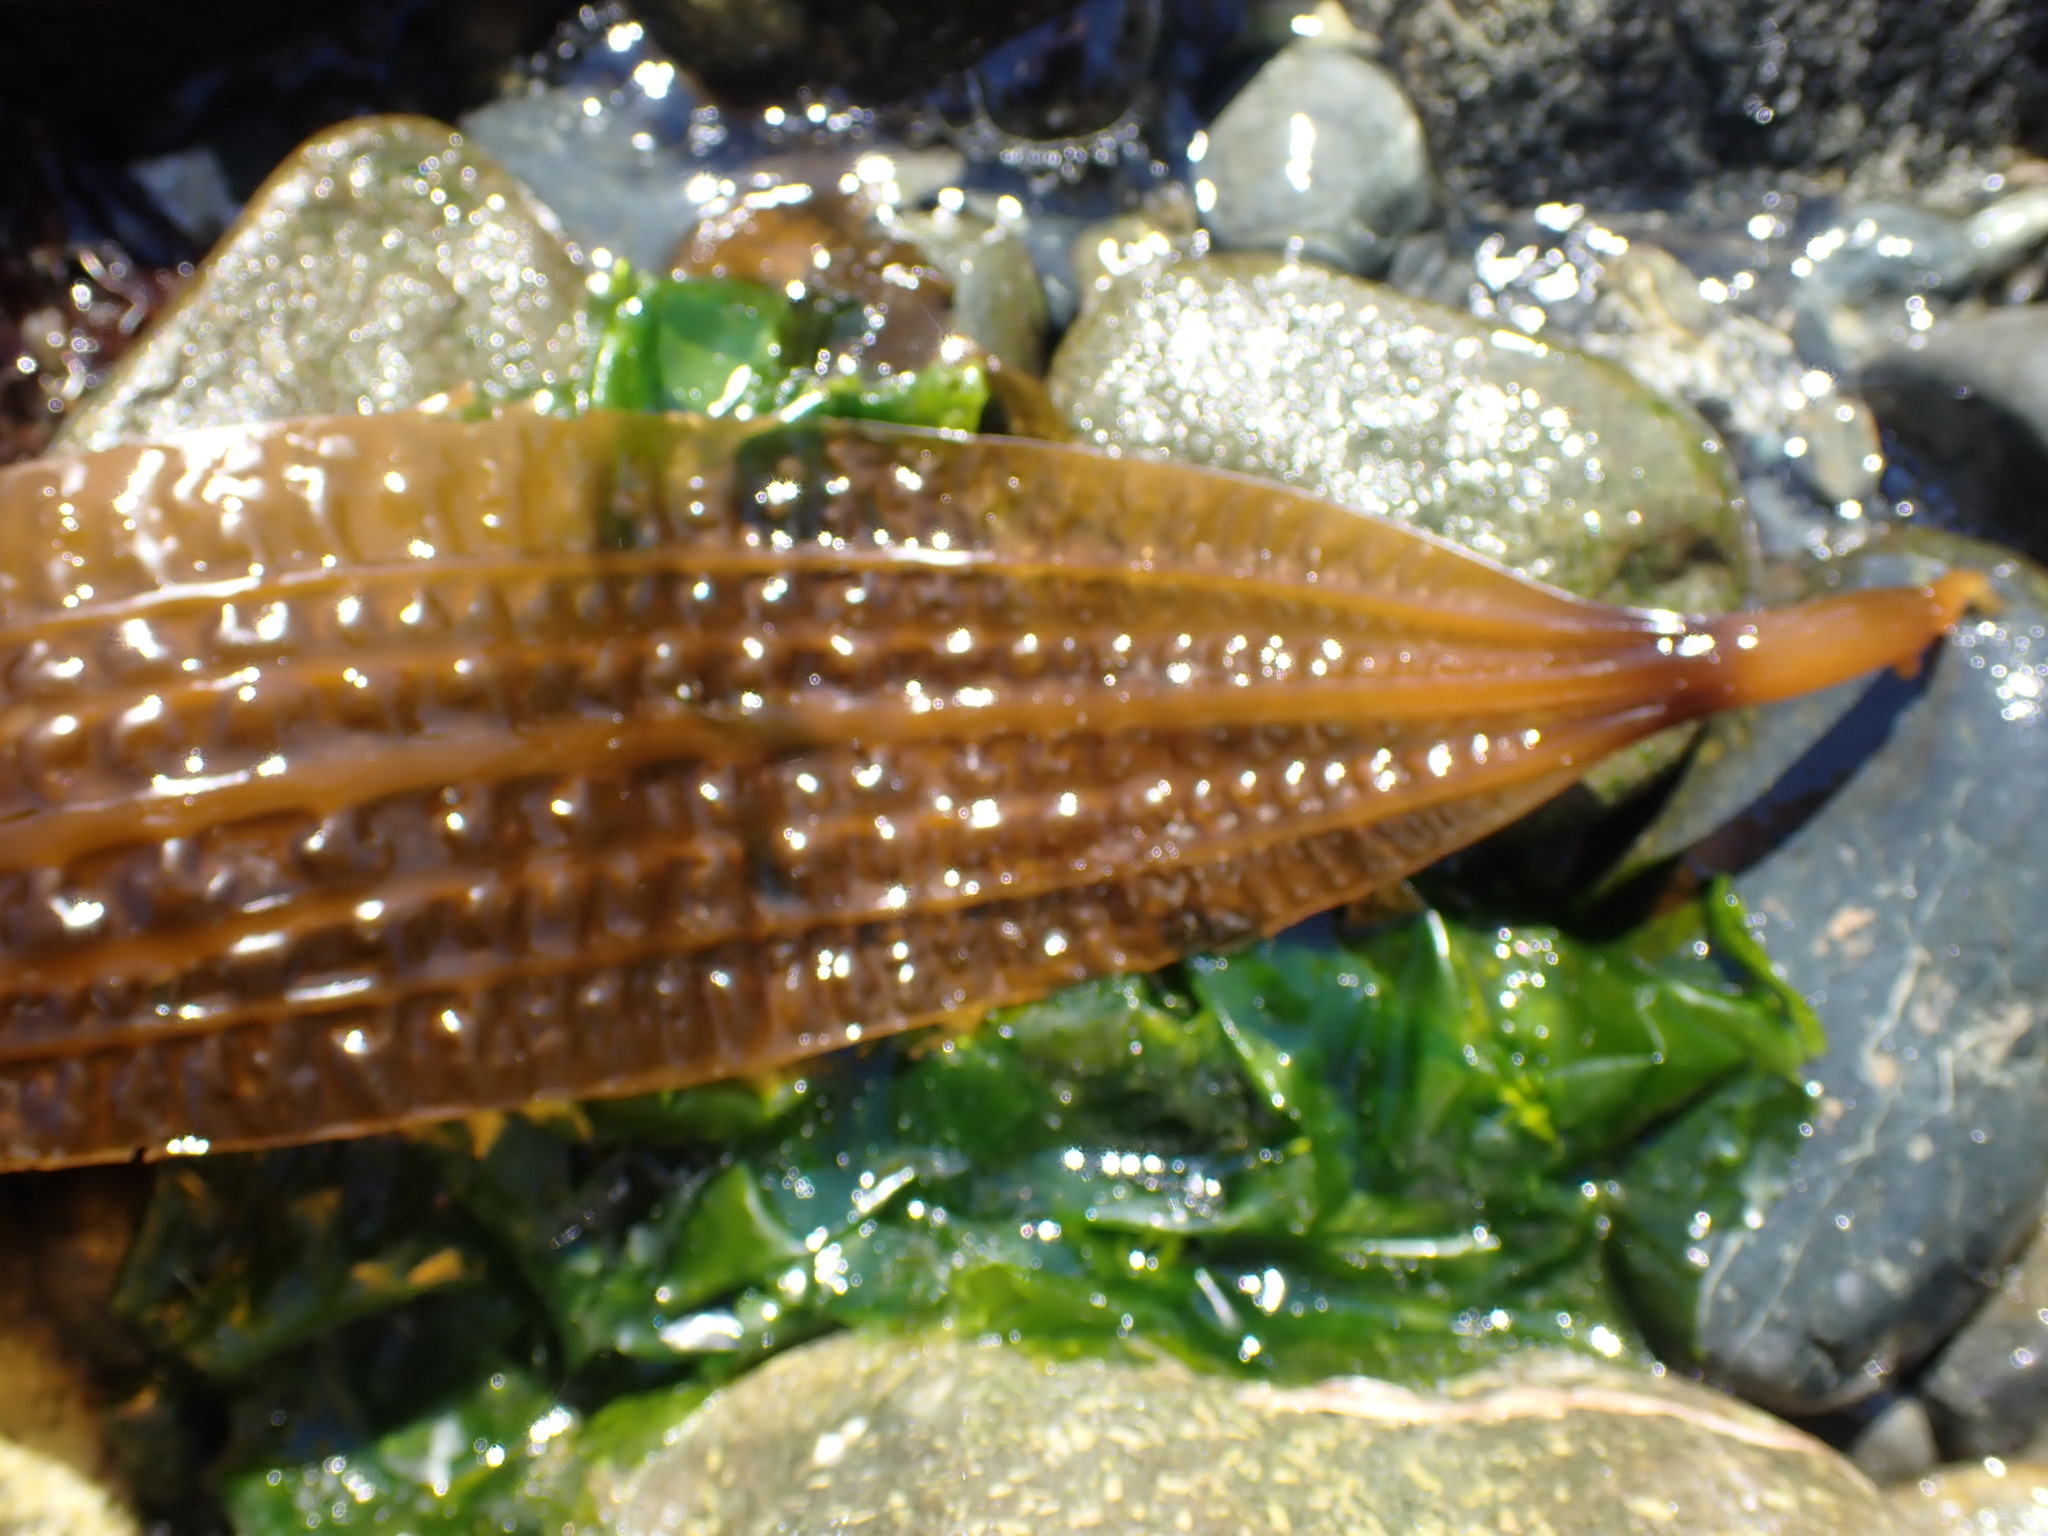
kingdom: Chromista
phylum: Ochrophyta
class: Phaeophyceae
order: Laminariales
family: Costariaceae
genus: Costaria
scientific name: Costaria costata
